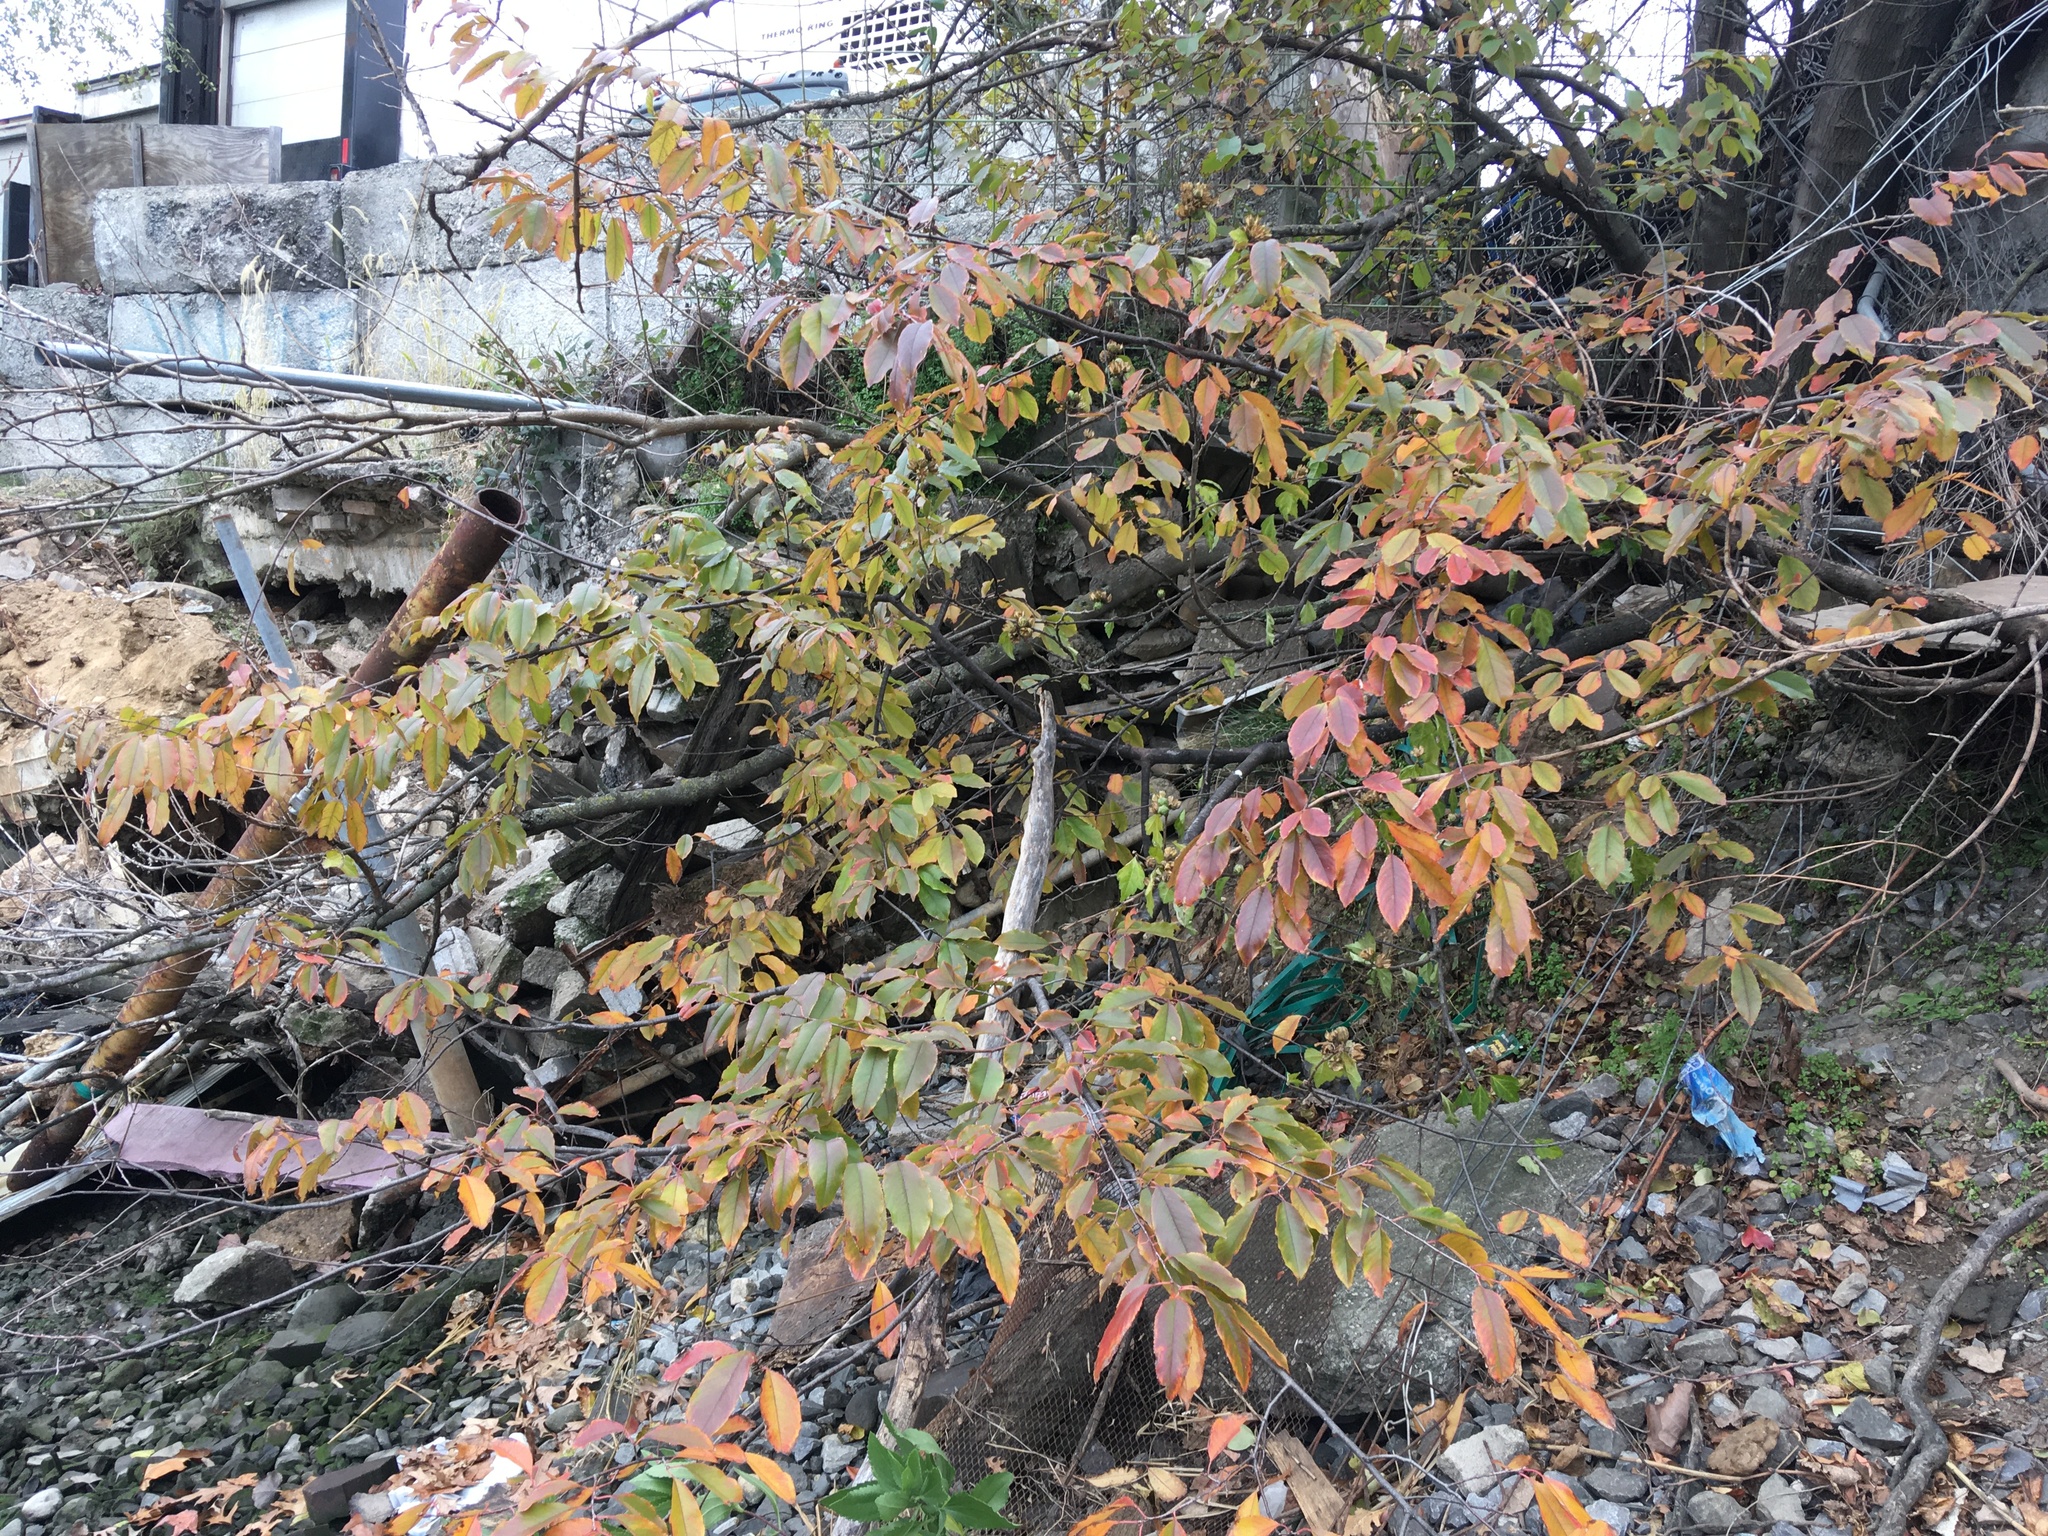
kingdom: Plantae
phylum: Tracheophyta
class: Magnoliopsida
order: Rosales
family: Rosaceae
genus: Prunus
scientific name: Prunus serotina
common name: Black cherry
